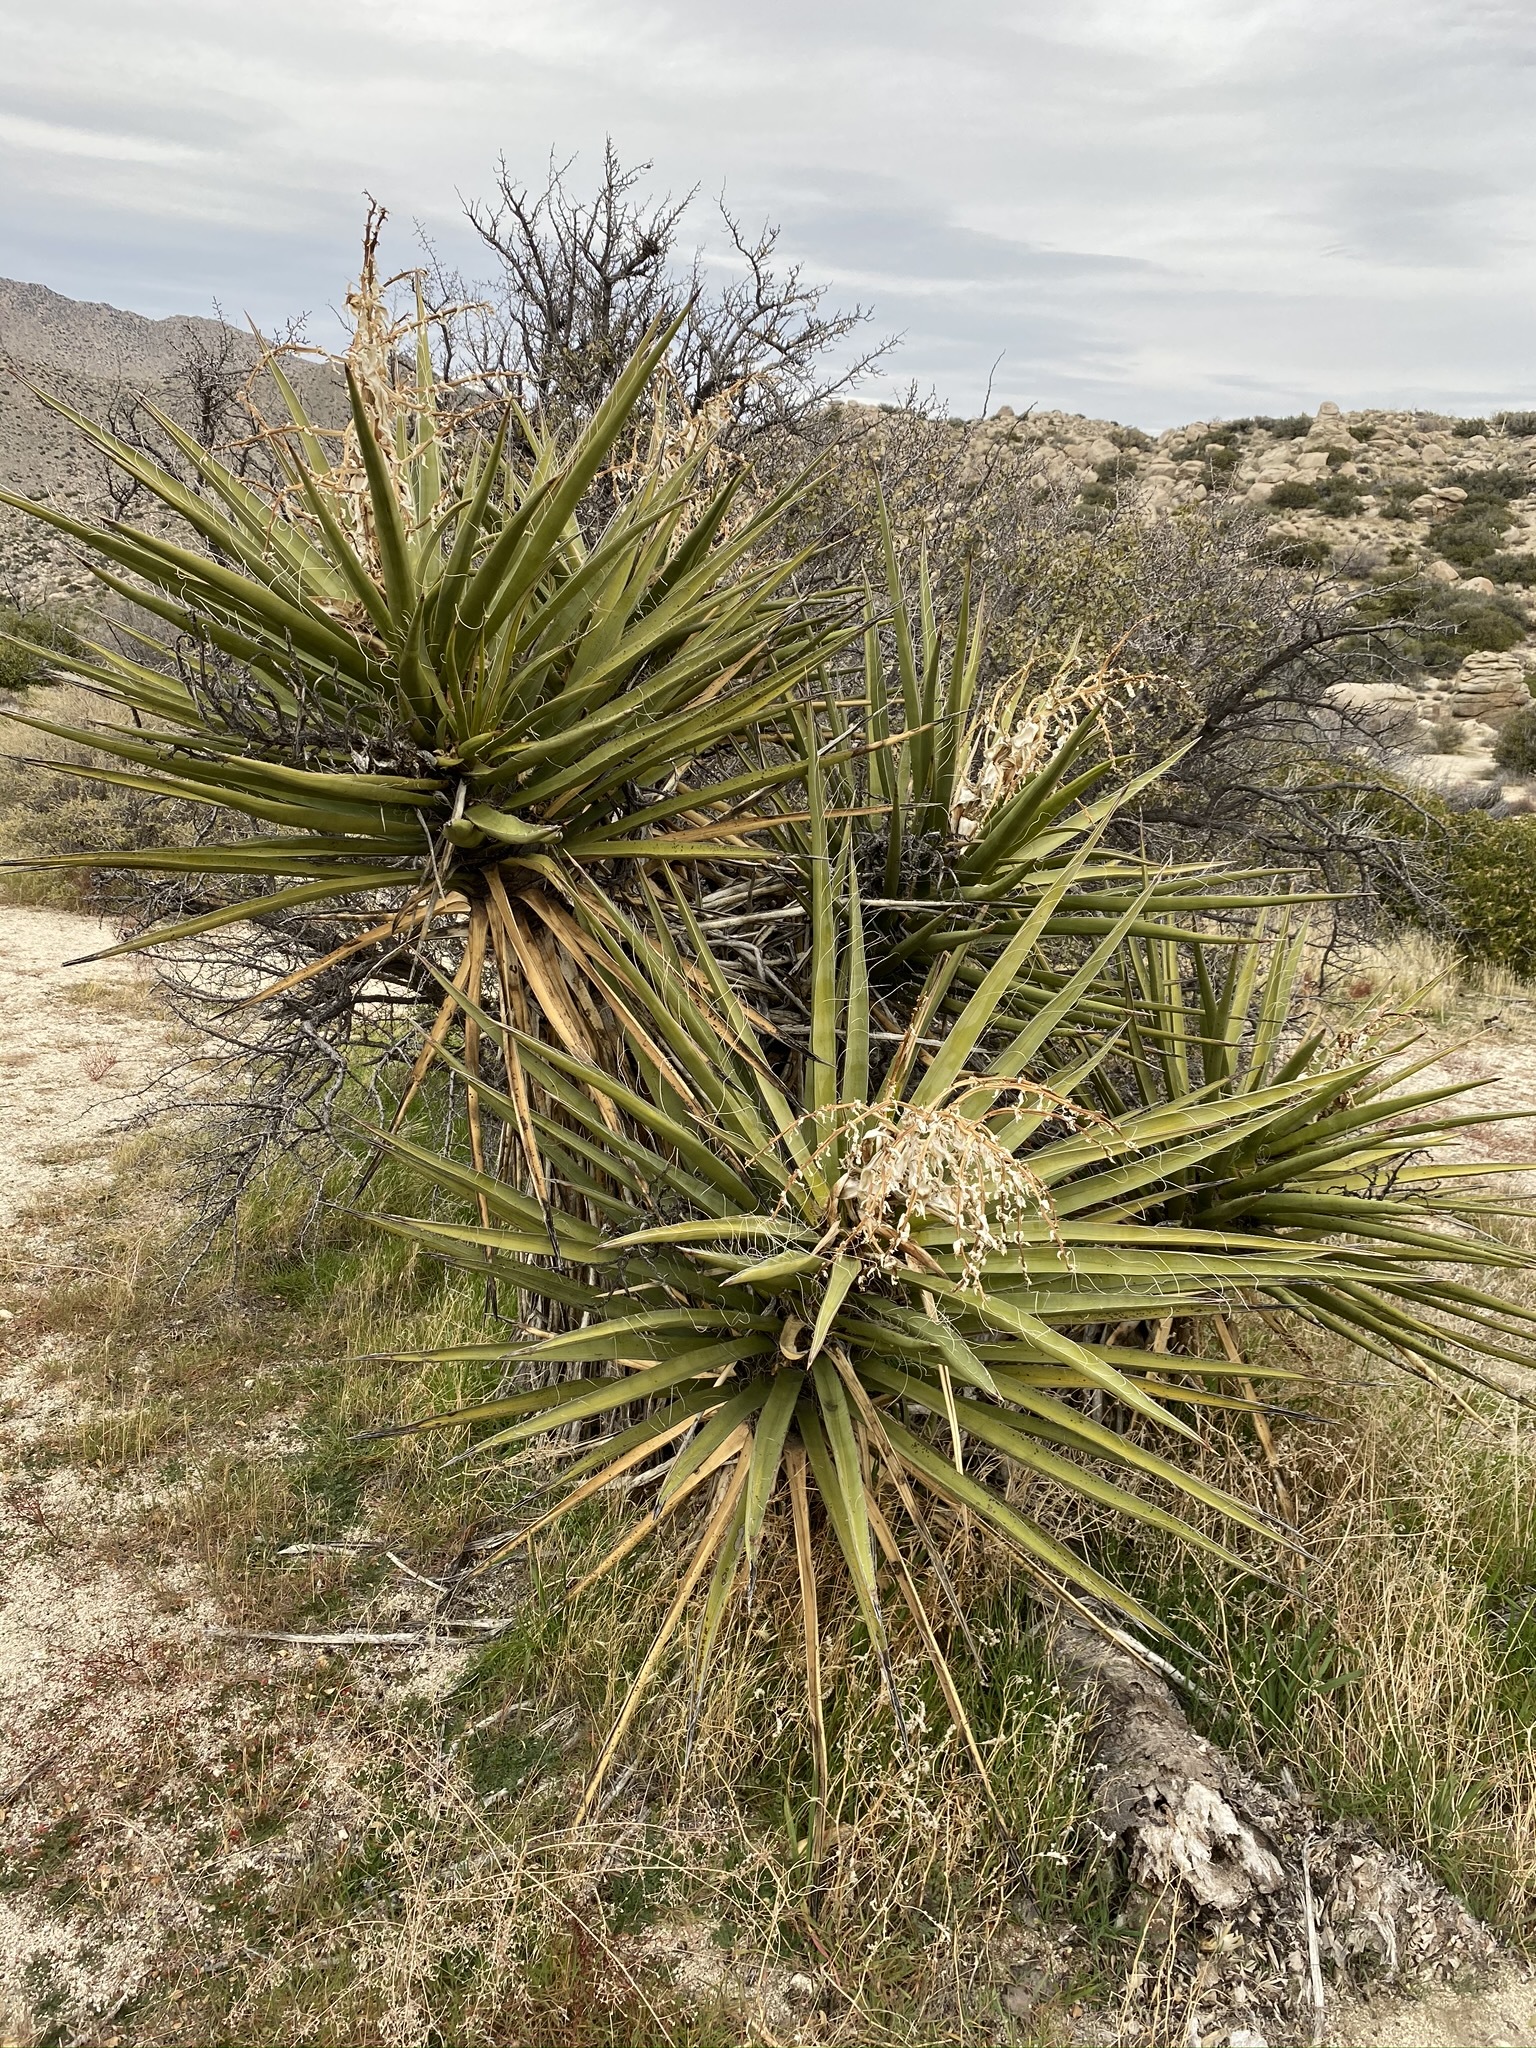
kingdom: Plantae
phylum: Tracheophyta
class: Liliopsida
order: Asparagales
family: Asparagaceae
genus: Yucca
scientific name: Yucca schidigera
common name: Mojave yucca
